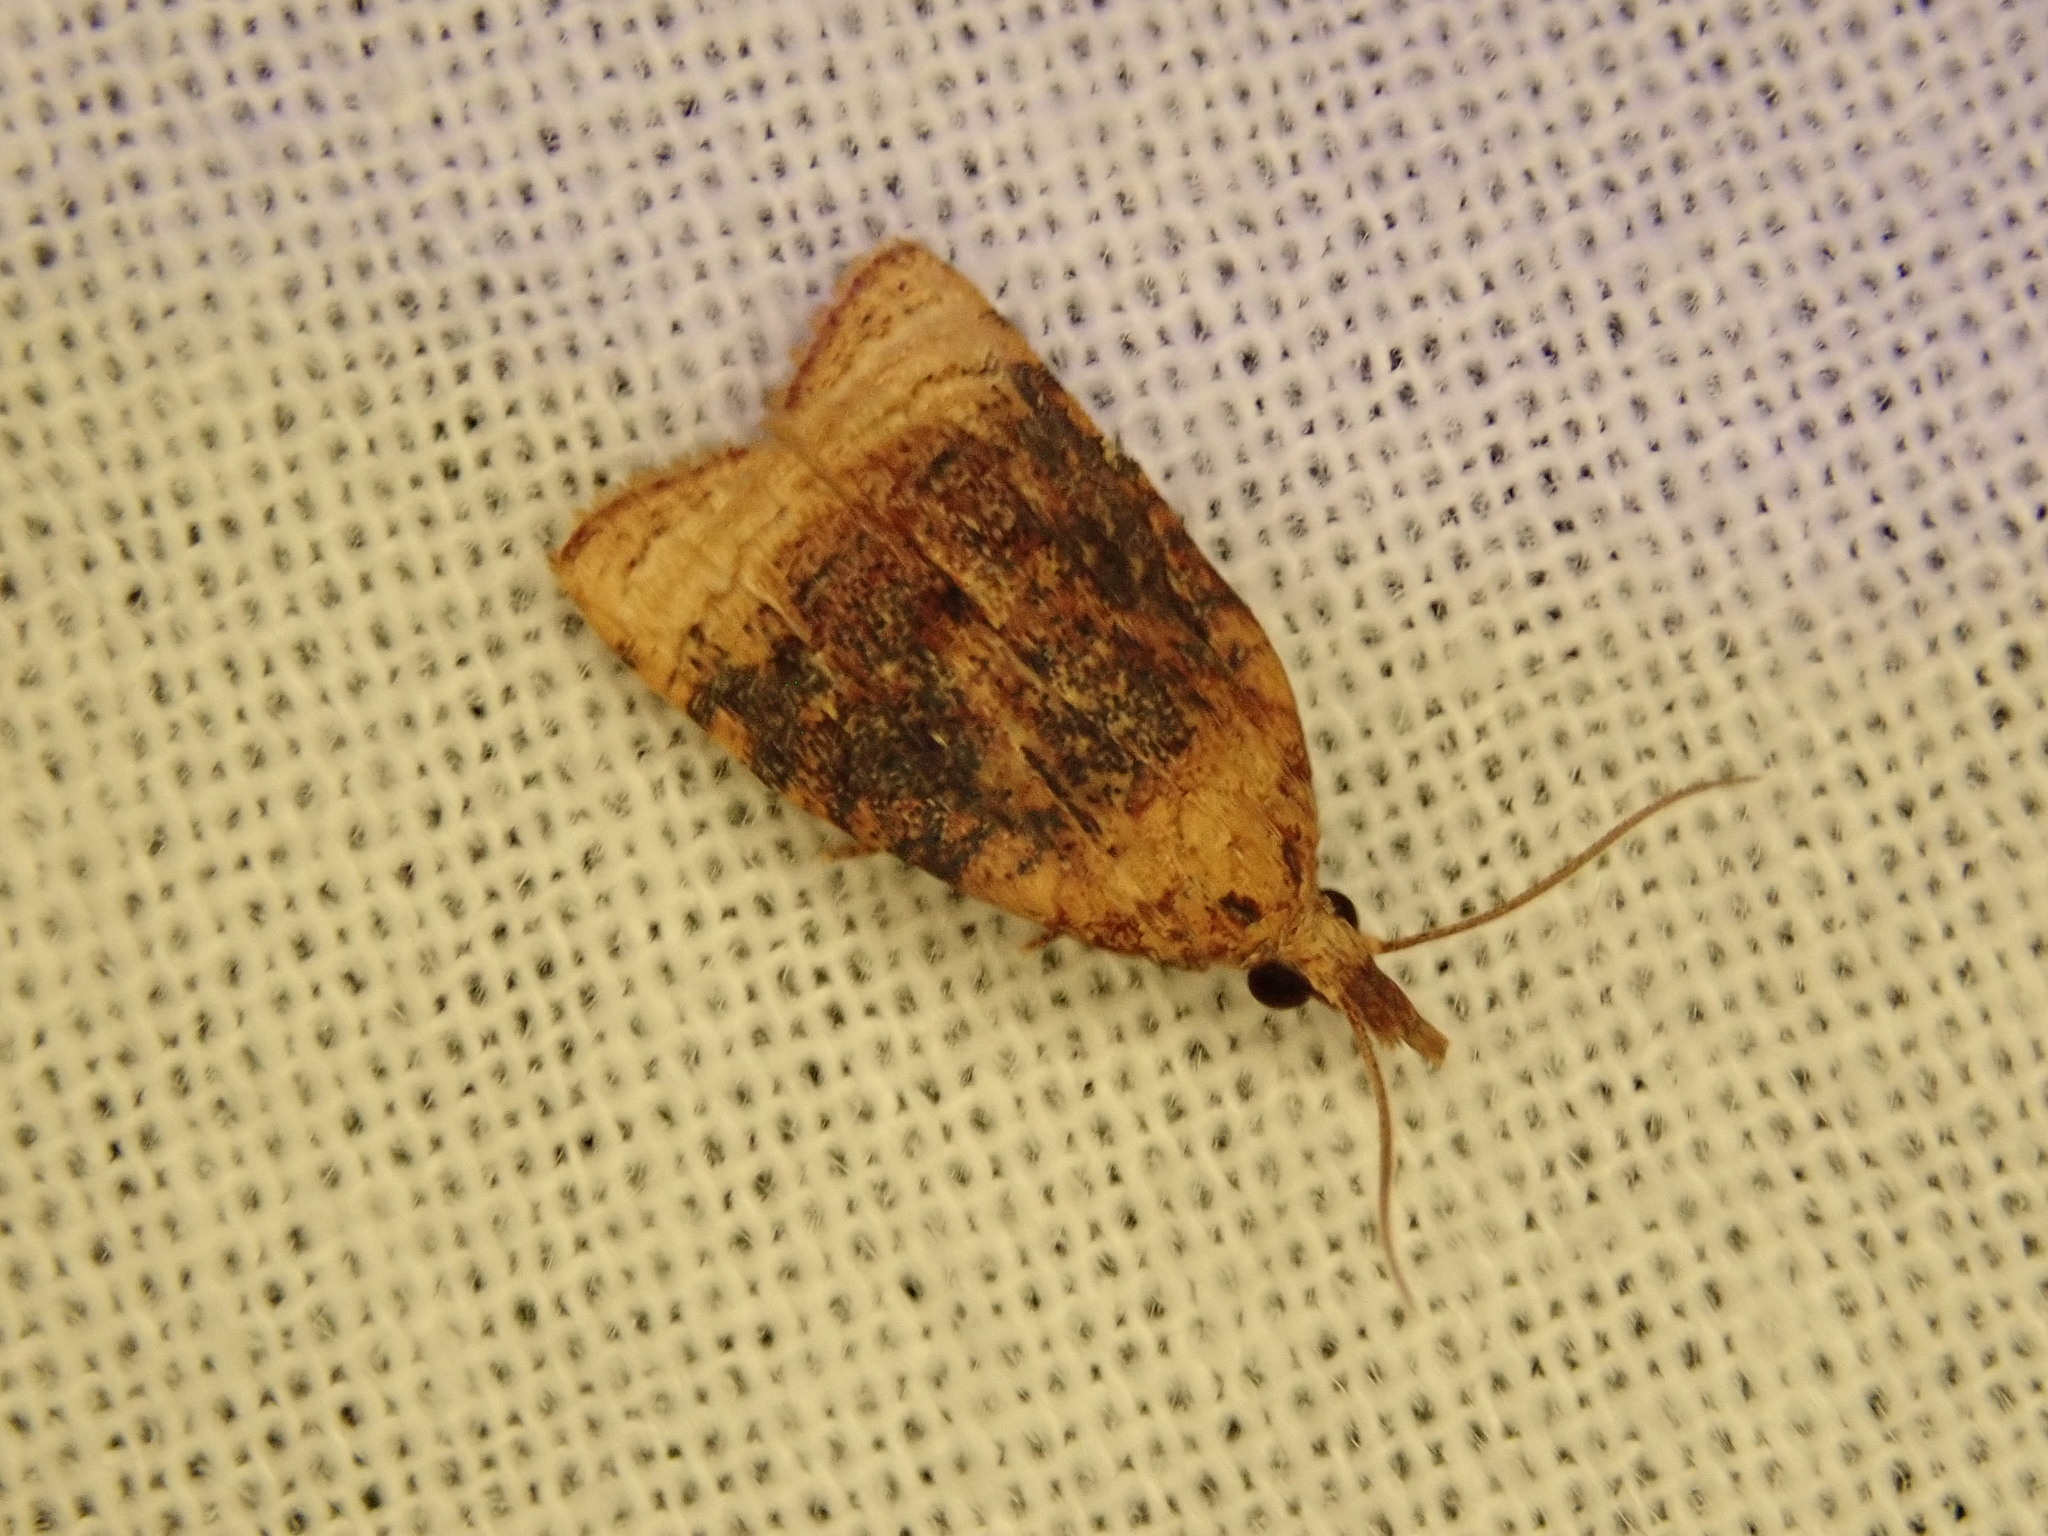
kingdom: Animalia
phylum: Arthropoda
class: Insecta
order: Lepidoptera
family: Tortricidae
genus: Platynota
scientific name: Platynota flavedana
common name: Black-shaded platynota moth
